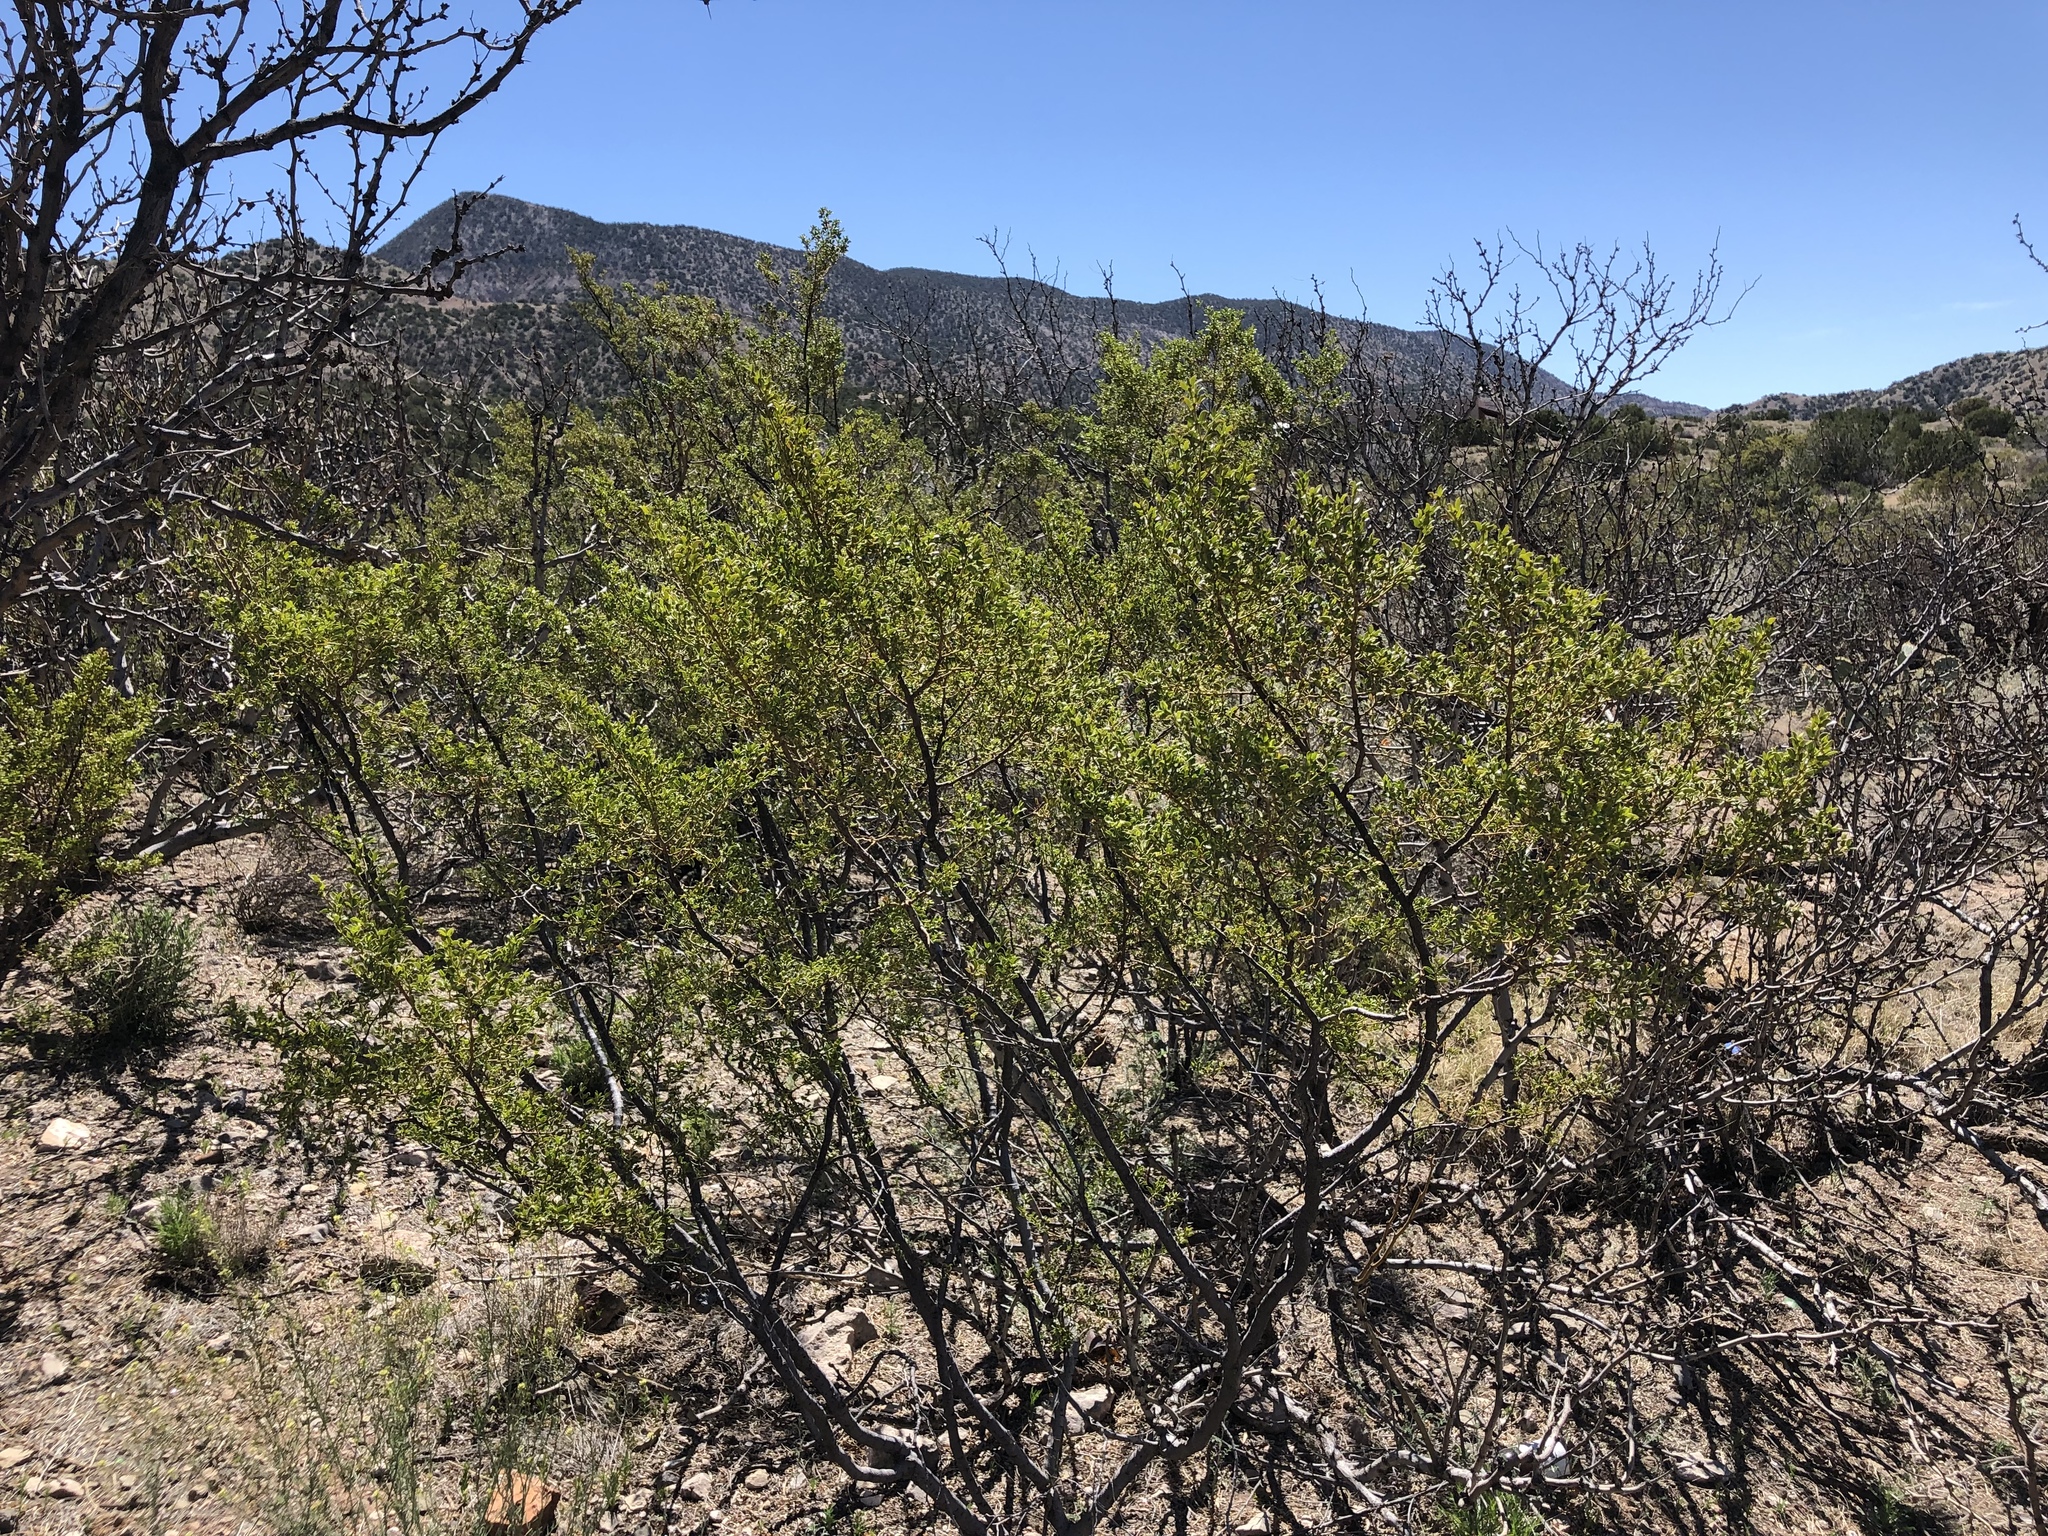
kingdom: Plantae
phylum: Tracheophyta
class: Magnoliopsida
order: Zygophyllales
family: Zygophyllaceae
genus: Larrea
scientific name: Larrea tridentata
